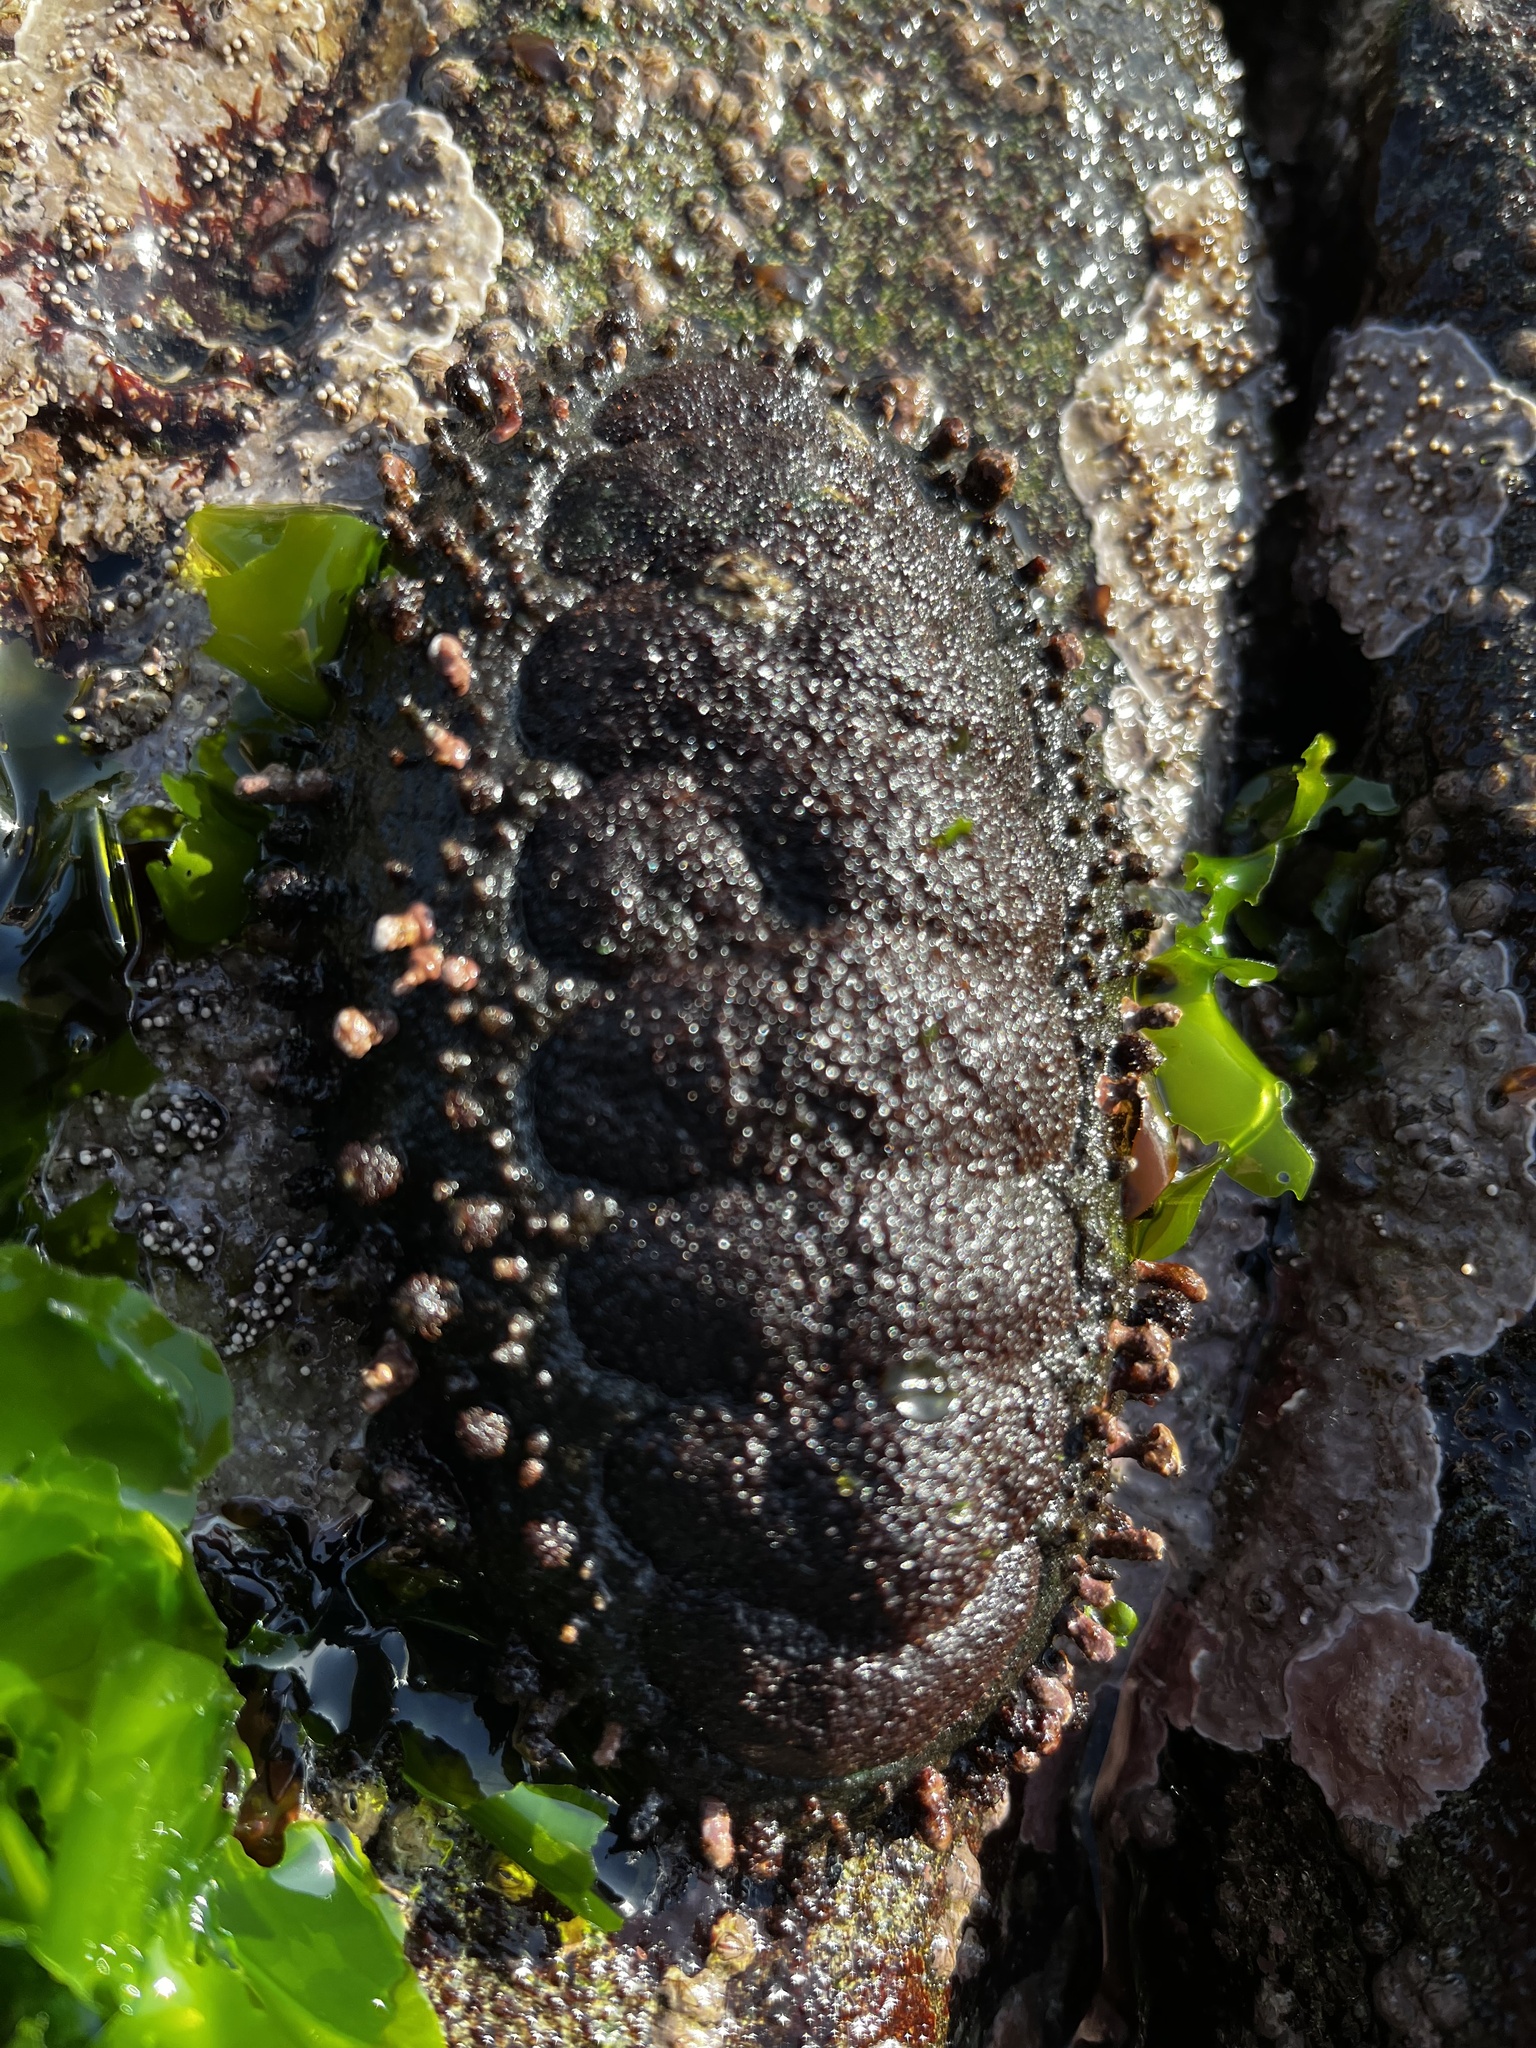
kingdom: Animalia
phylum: Mollusca
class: Polyplacophora
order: Chitonida
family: Chitonidae
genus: Enoplochiton
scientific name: Enoplochiton echinatus
